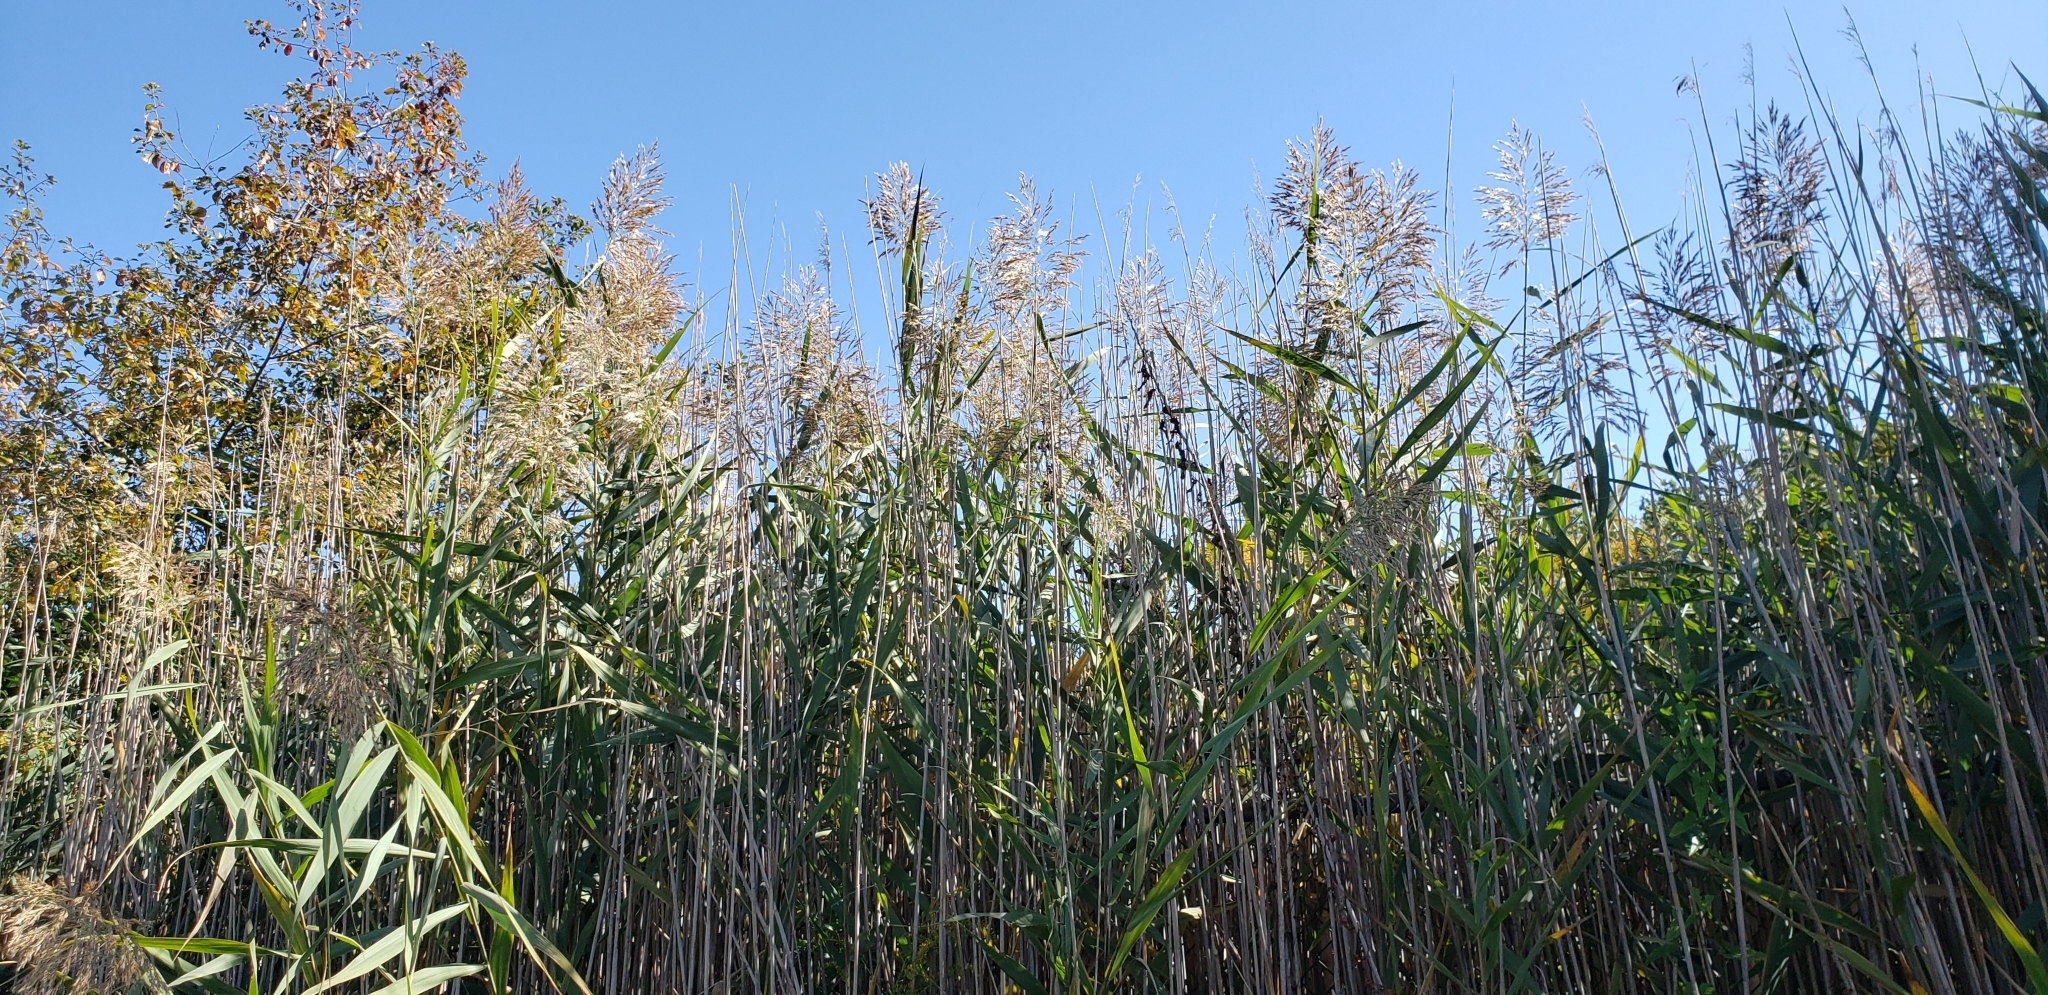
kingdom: Plantae
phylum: Tracheophyta
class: Liliopsida
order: Poales
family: Poaceae
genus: Phragmites
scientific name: Phragmites australis
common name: Common reed
